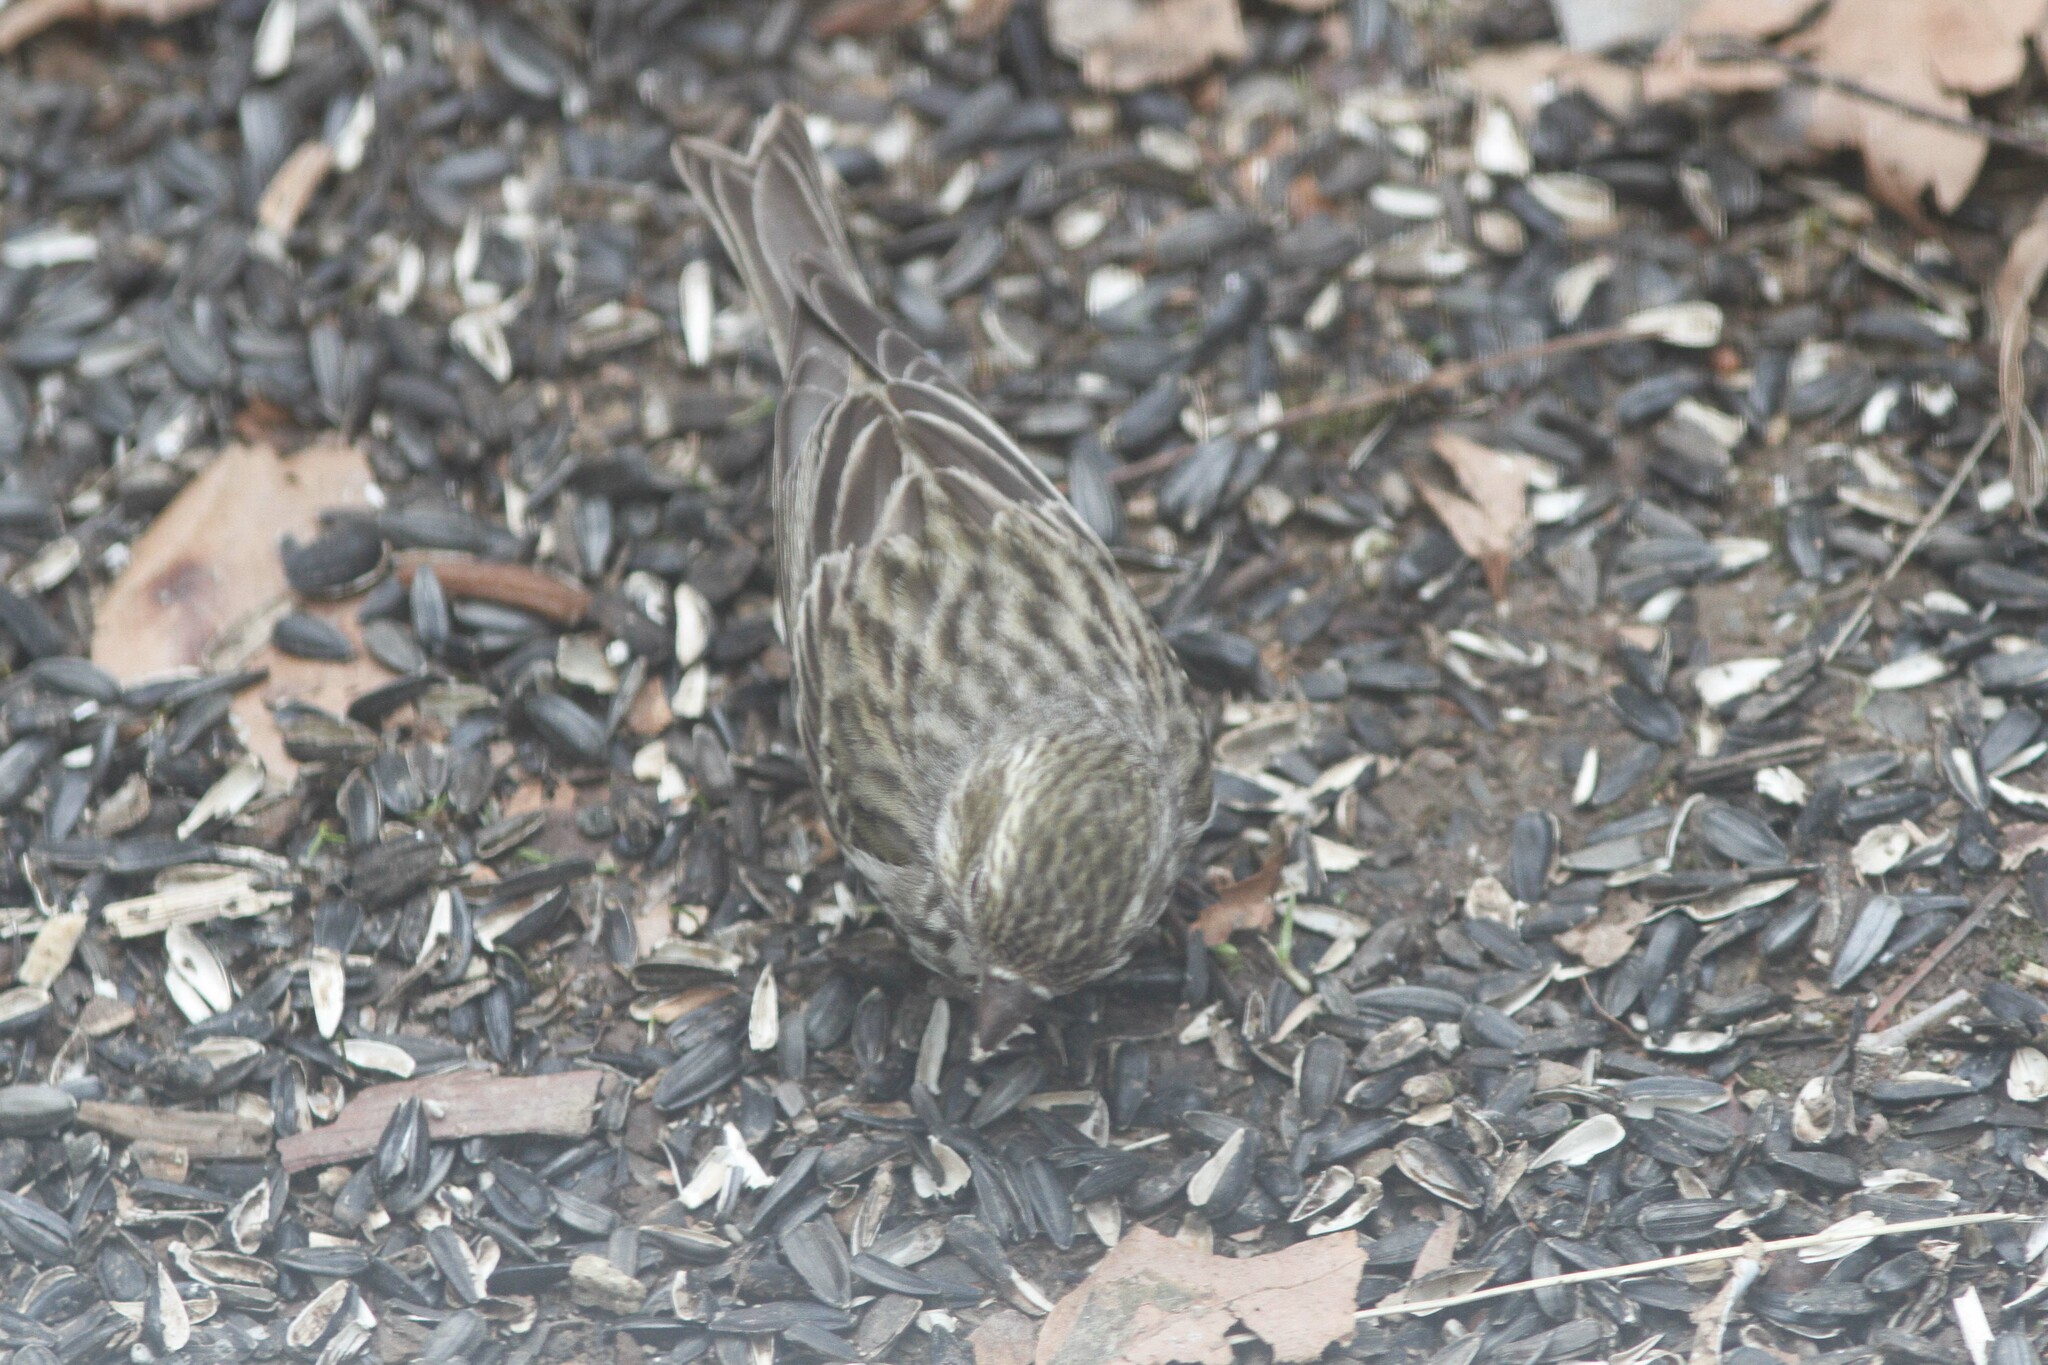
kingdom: Animalia
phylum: Chordata
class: Aves
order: Passeriformes
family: Fringillidae
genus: Haemorhous
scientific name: Haemorhous cassinii
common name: Cassin's finch
